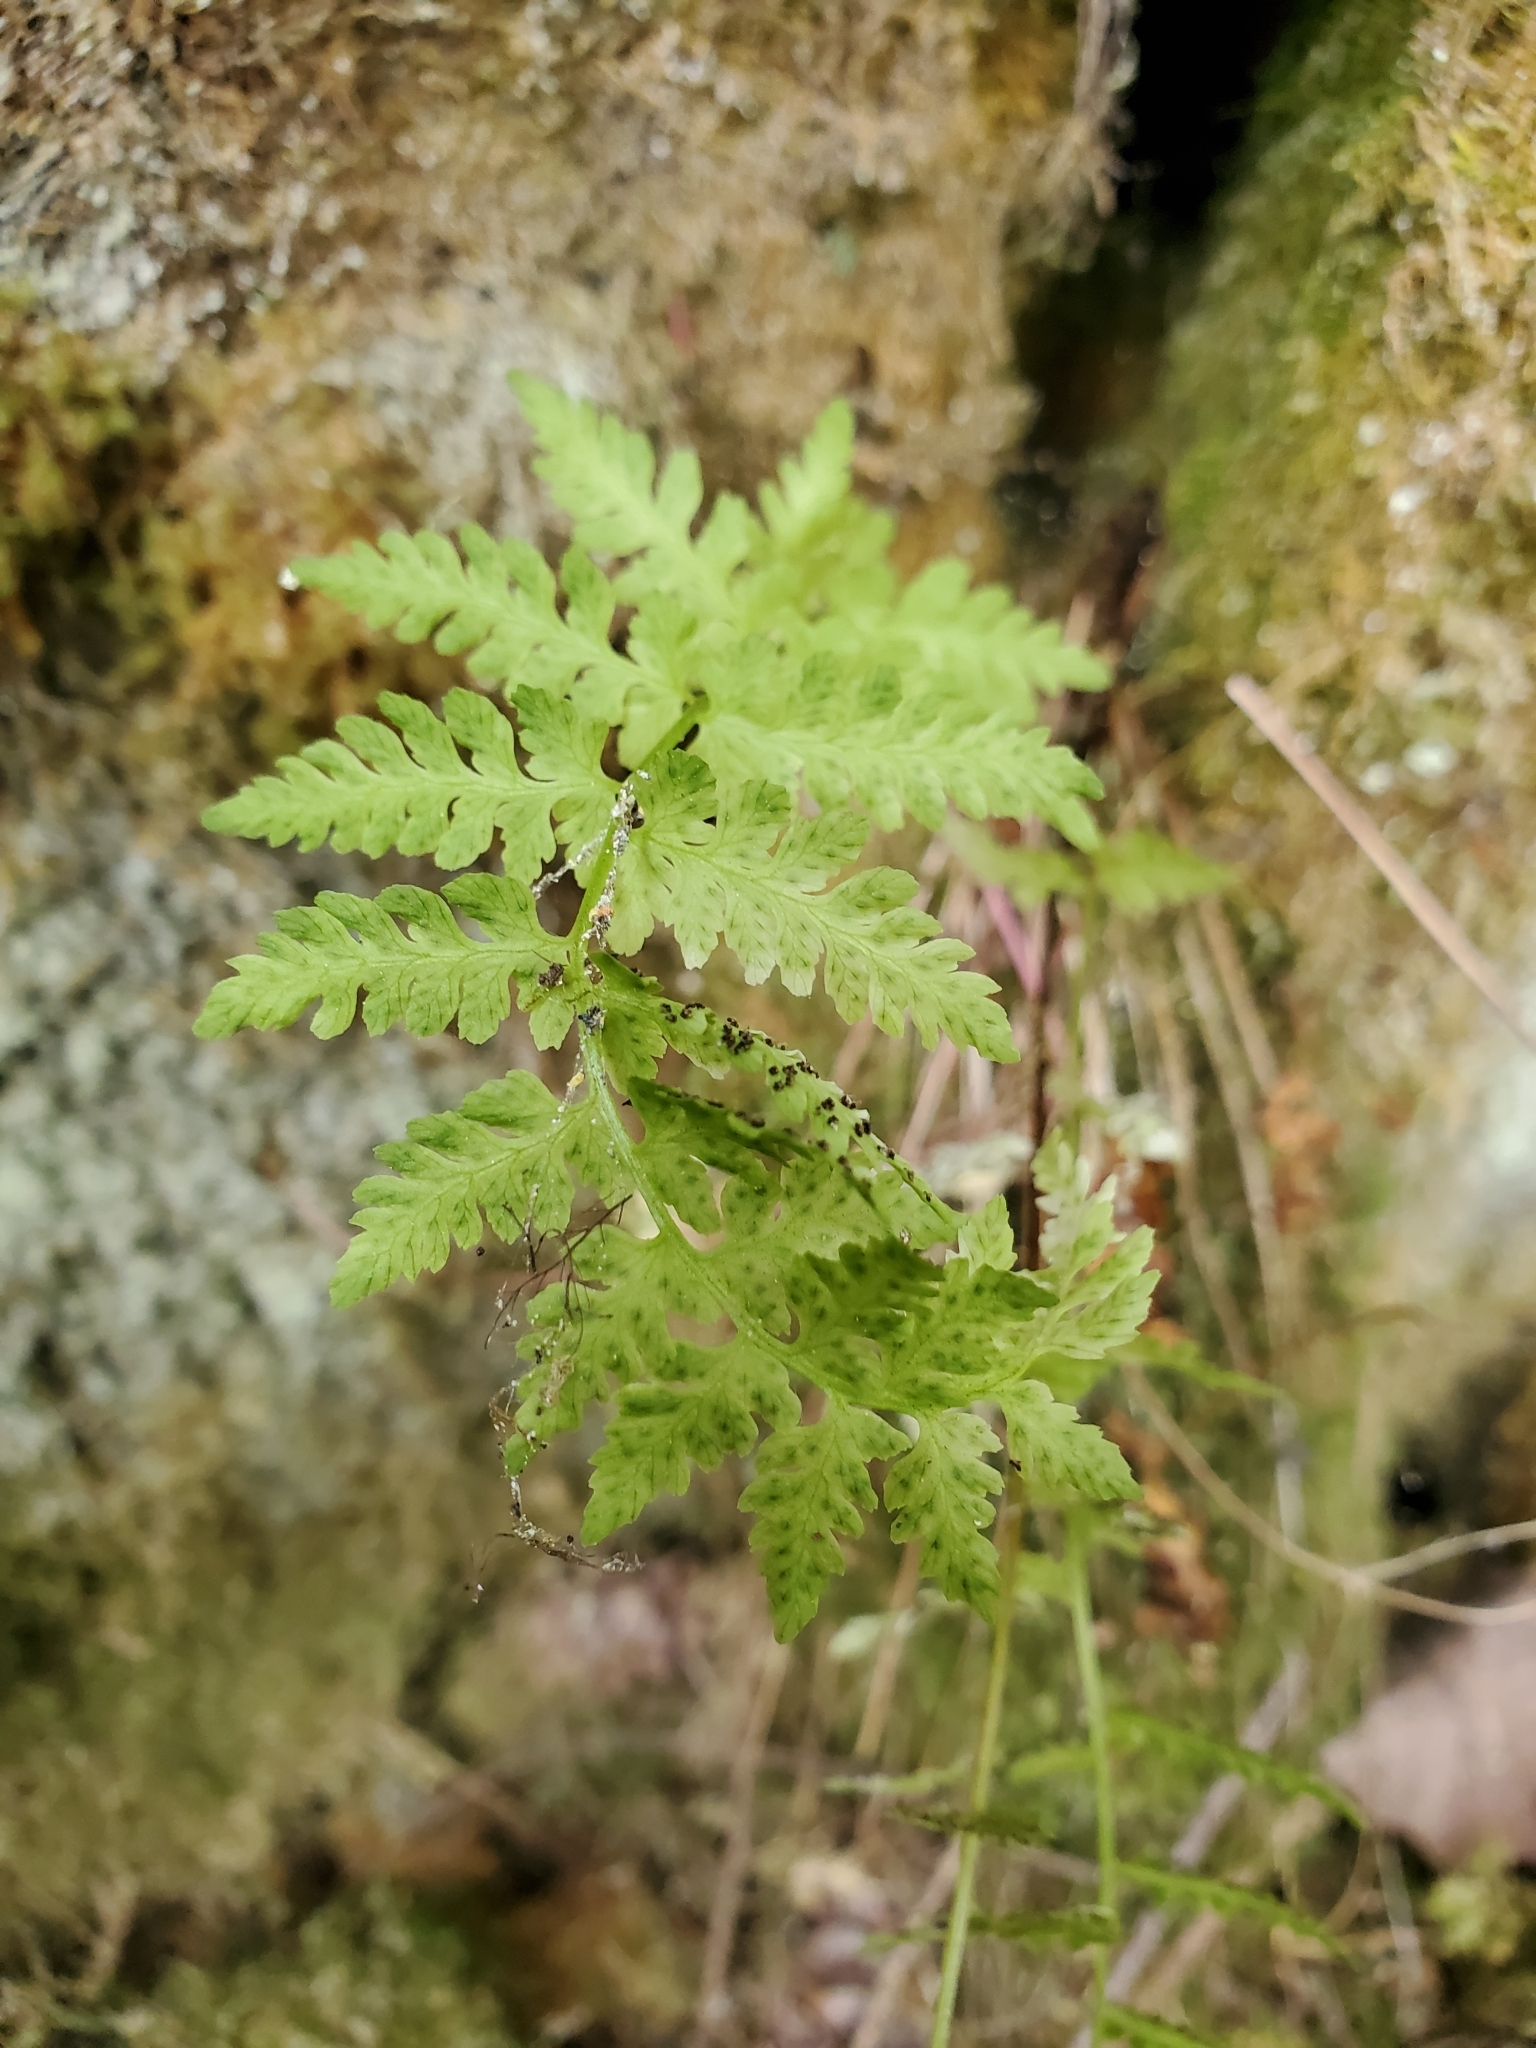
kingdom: Plantae
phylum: Tracheophyta
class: Polypodiopsida
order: Polypodiales
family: Cystopteridaceae
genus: Cystopteris
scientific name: Cystopteris fragilis
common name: Brittle bladder fern
